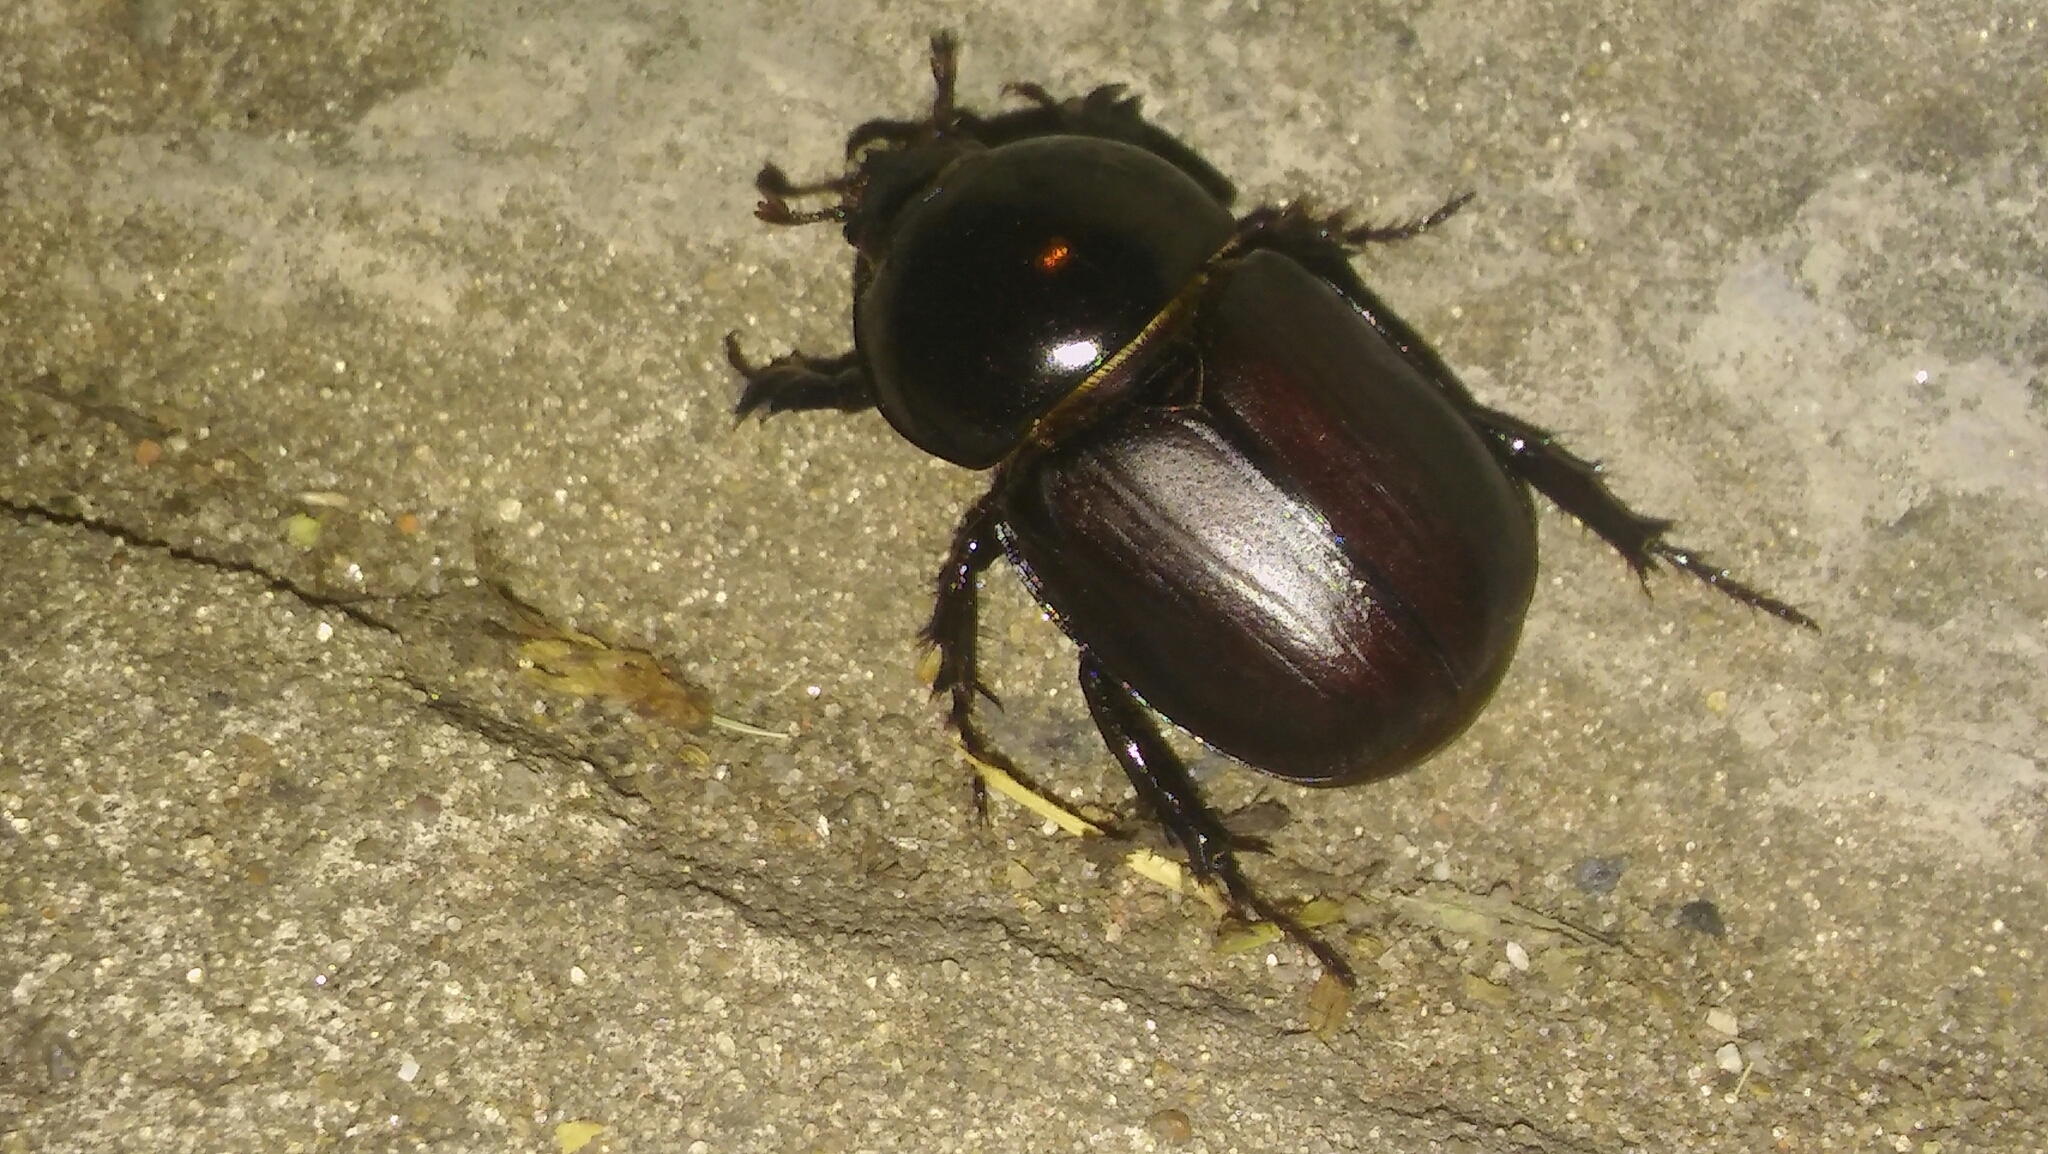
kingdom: Animalia
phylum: Arthropoda
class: Insecta
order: Coleoptera
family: Scarabaeidae
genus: Diloboderus
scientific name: Diloboderus abderus
